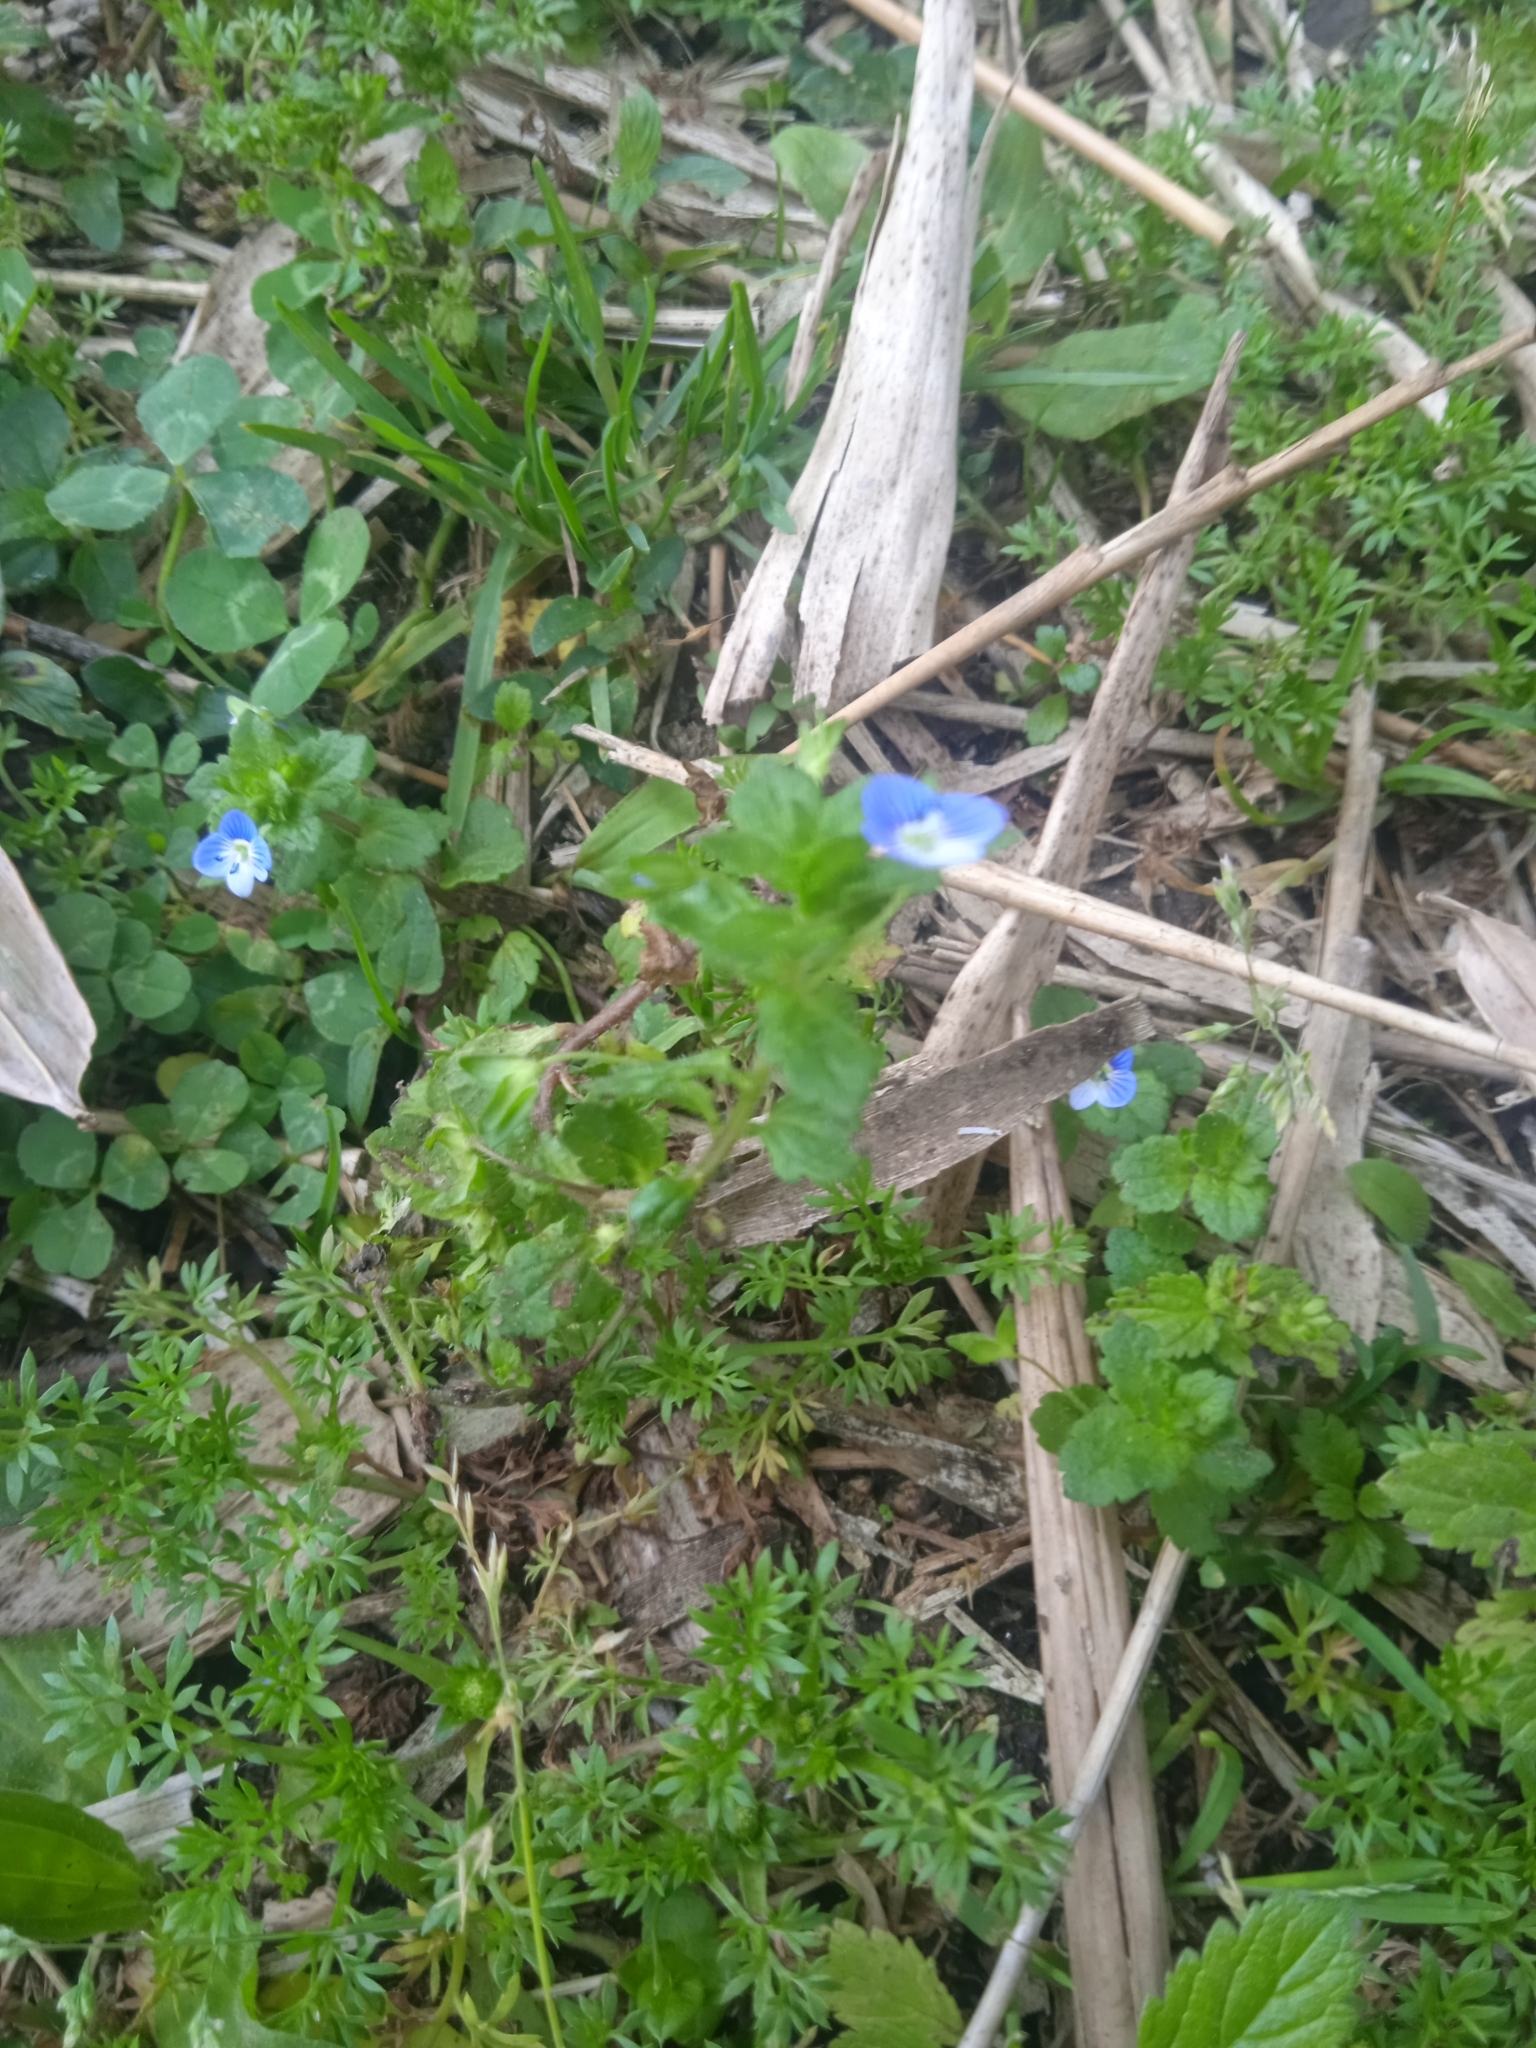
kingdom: Plantae
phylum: Tracheophyta
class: Magnoliopsida
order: Lamiales
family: Plantaginaceae
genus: Veronica
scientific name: Veronica persica
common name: Common field-speedwell
